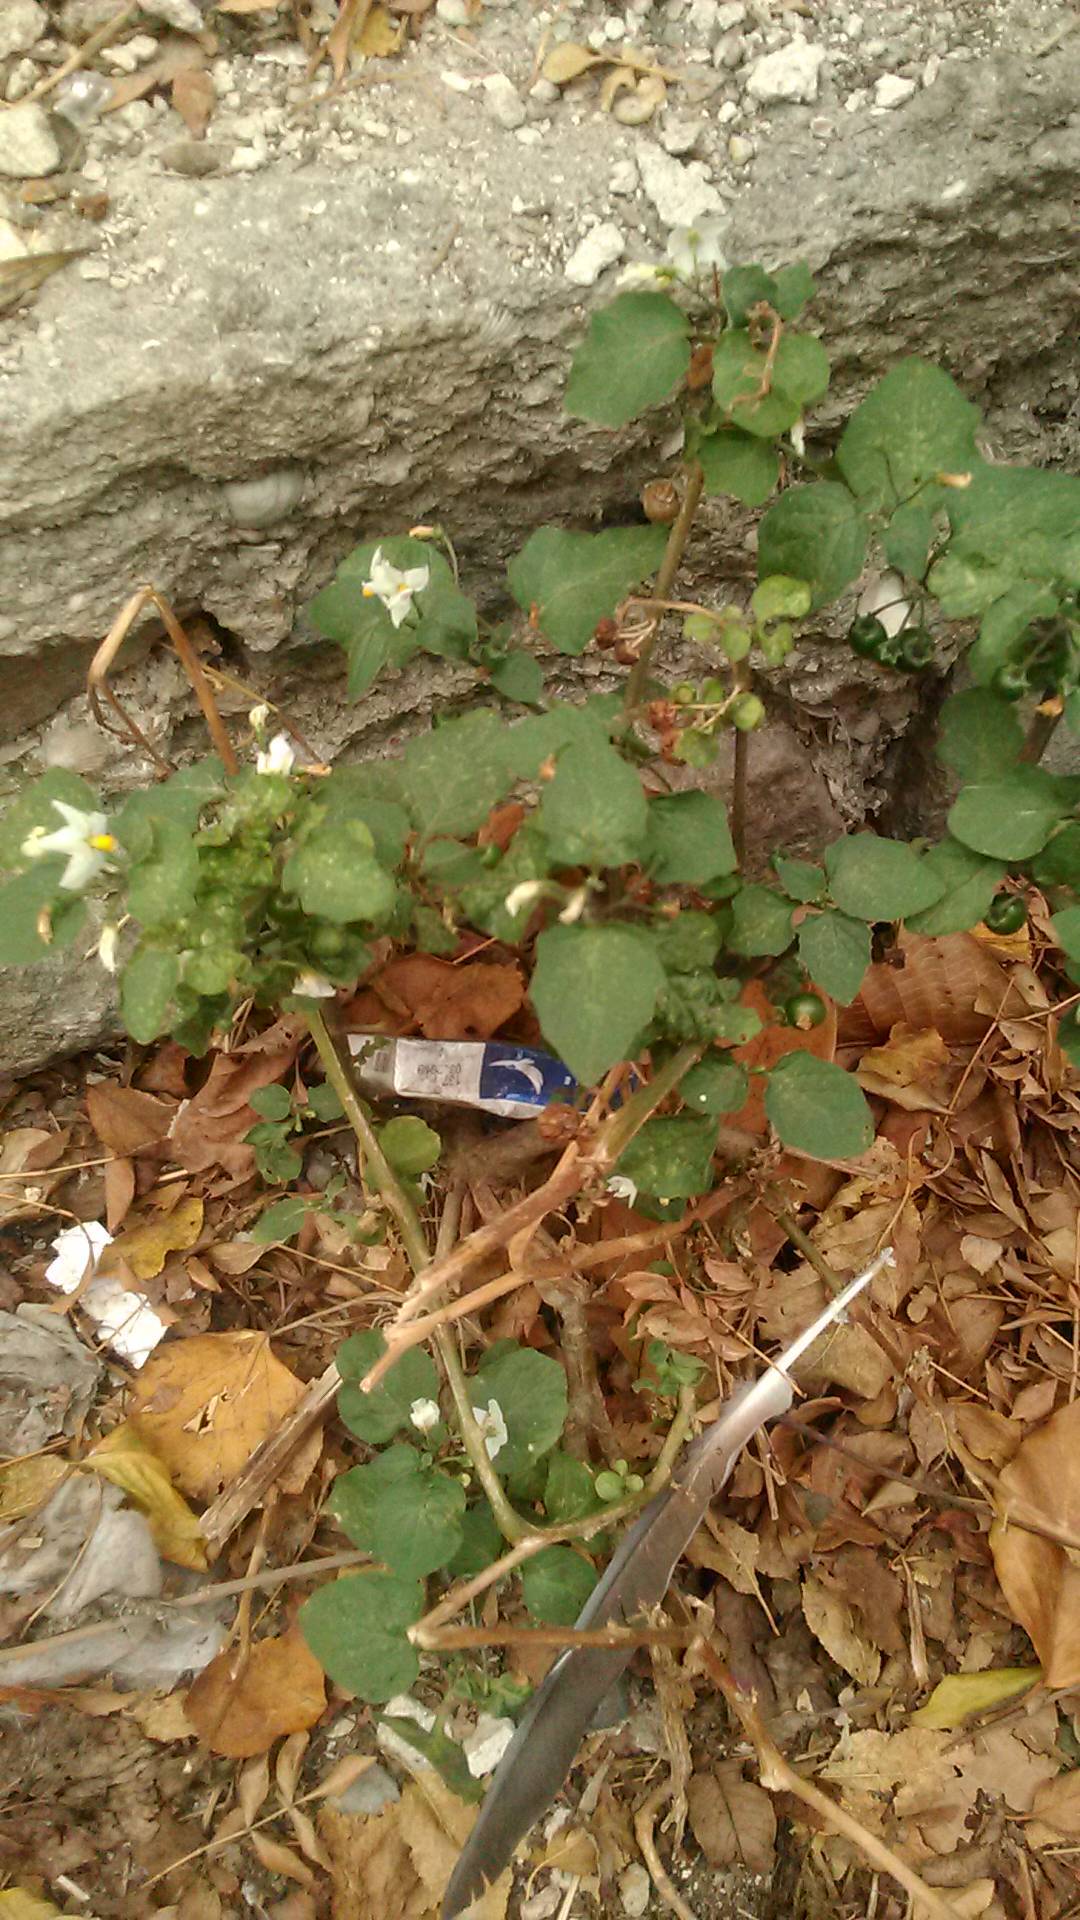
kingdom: Plantae
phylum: Tracheophyta
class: Magnoliopsida
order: Solanales
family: Solanaceae
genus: Solanum
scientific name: Solanum nigrum
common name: Black nightshade
